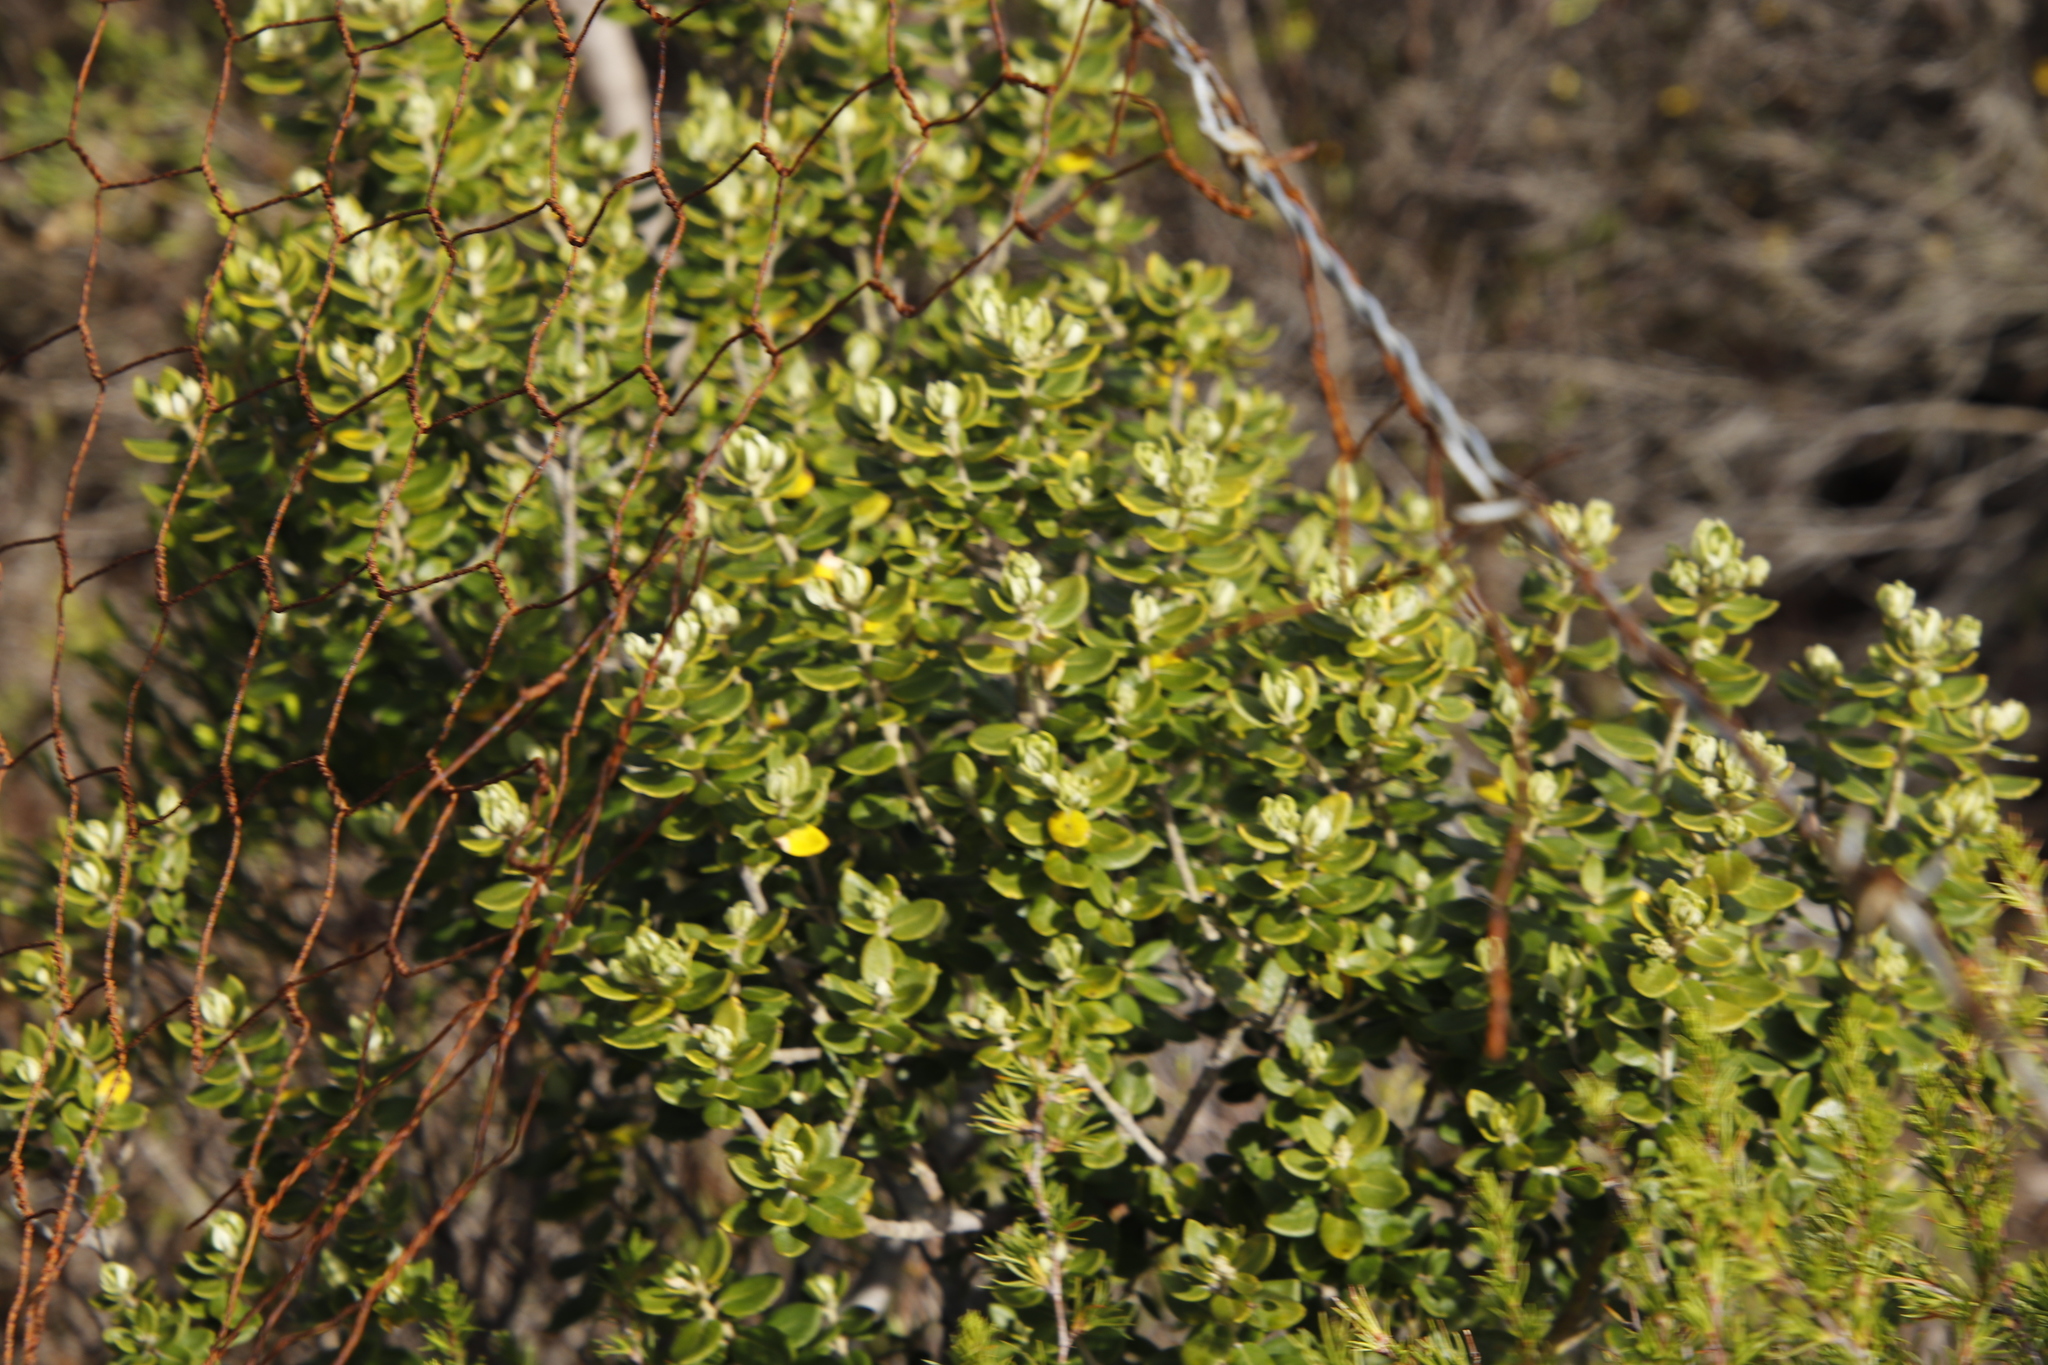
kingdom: Plantae
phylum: Tracheophyta
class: Magnoliopsida
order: Rosales
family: Rhamnaceae
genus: Phylica
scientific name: Phylica buxifolia
